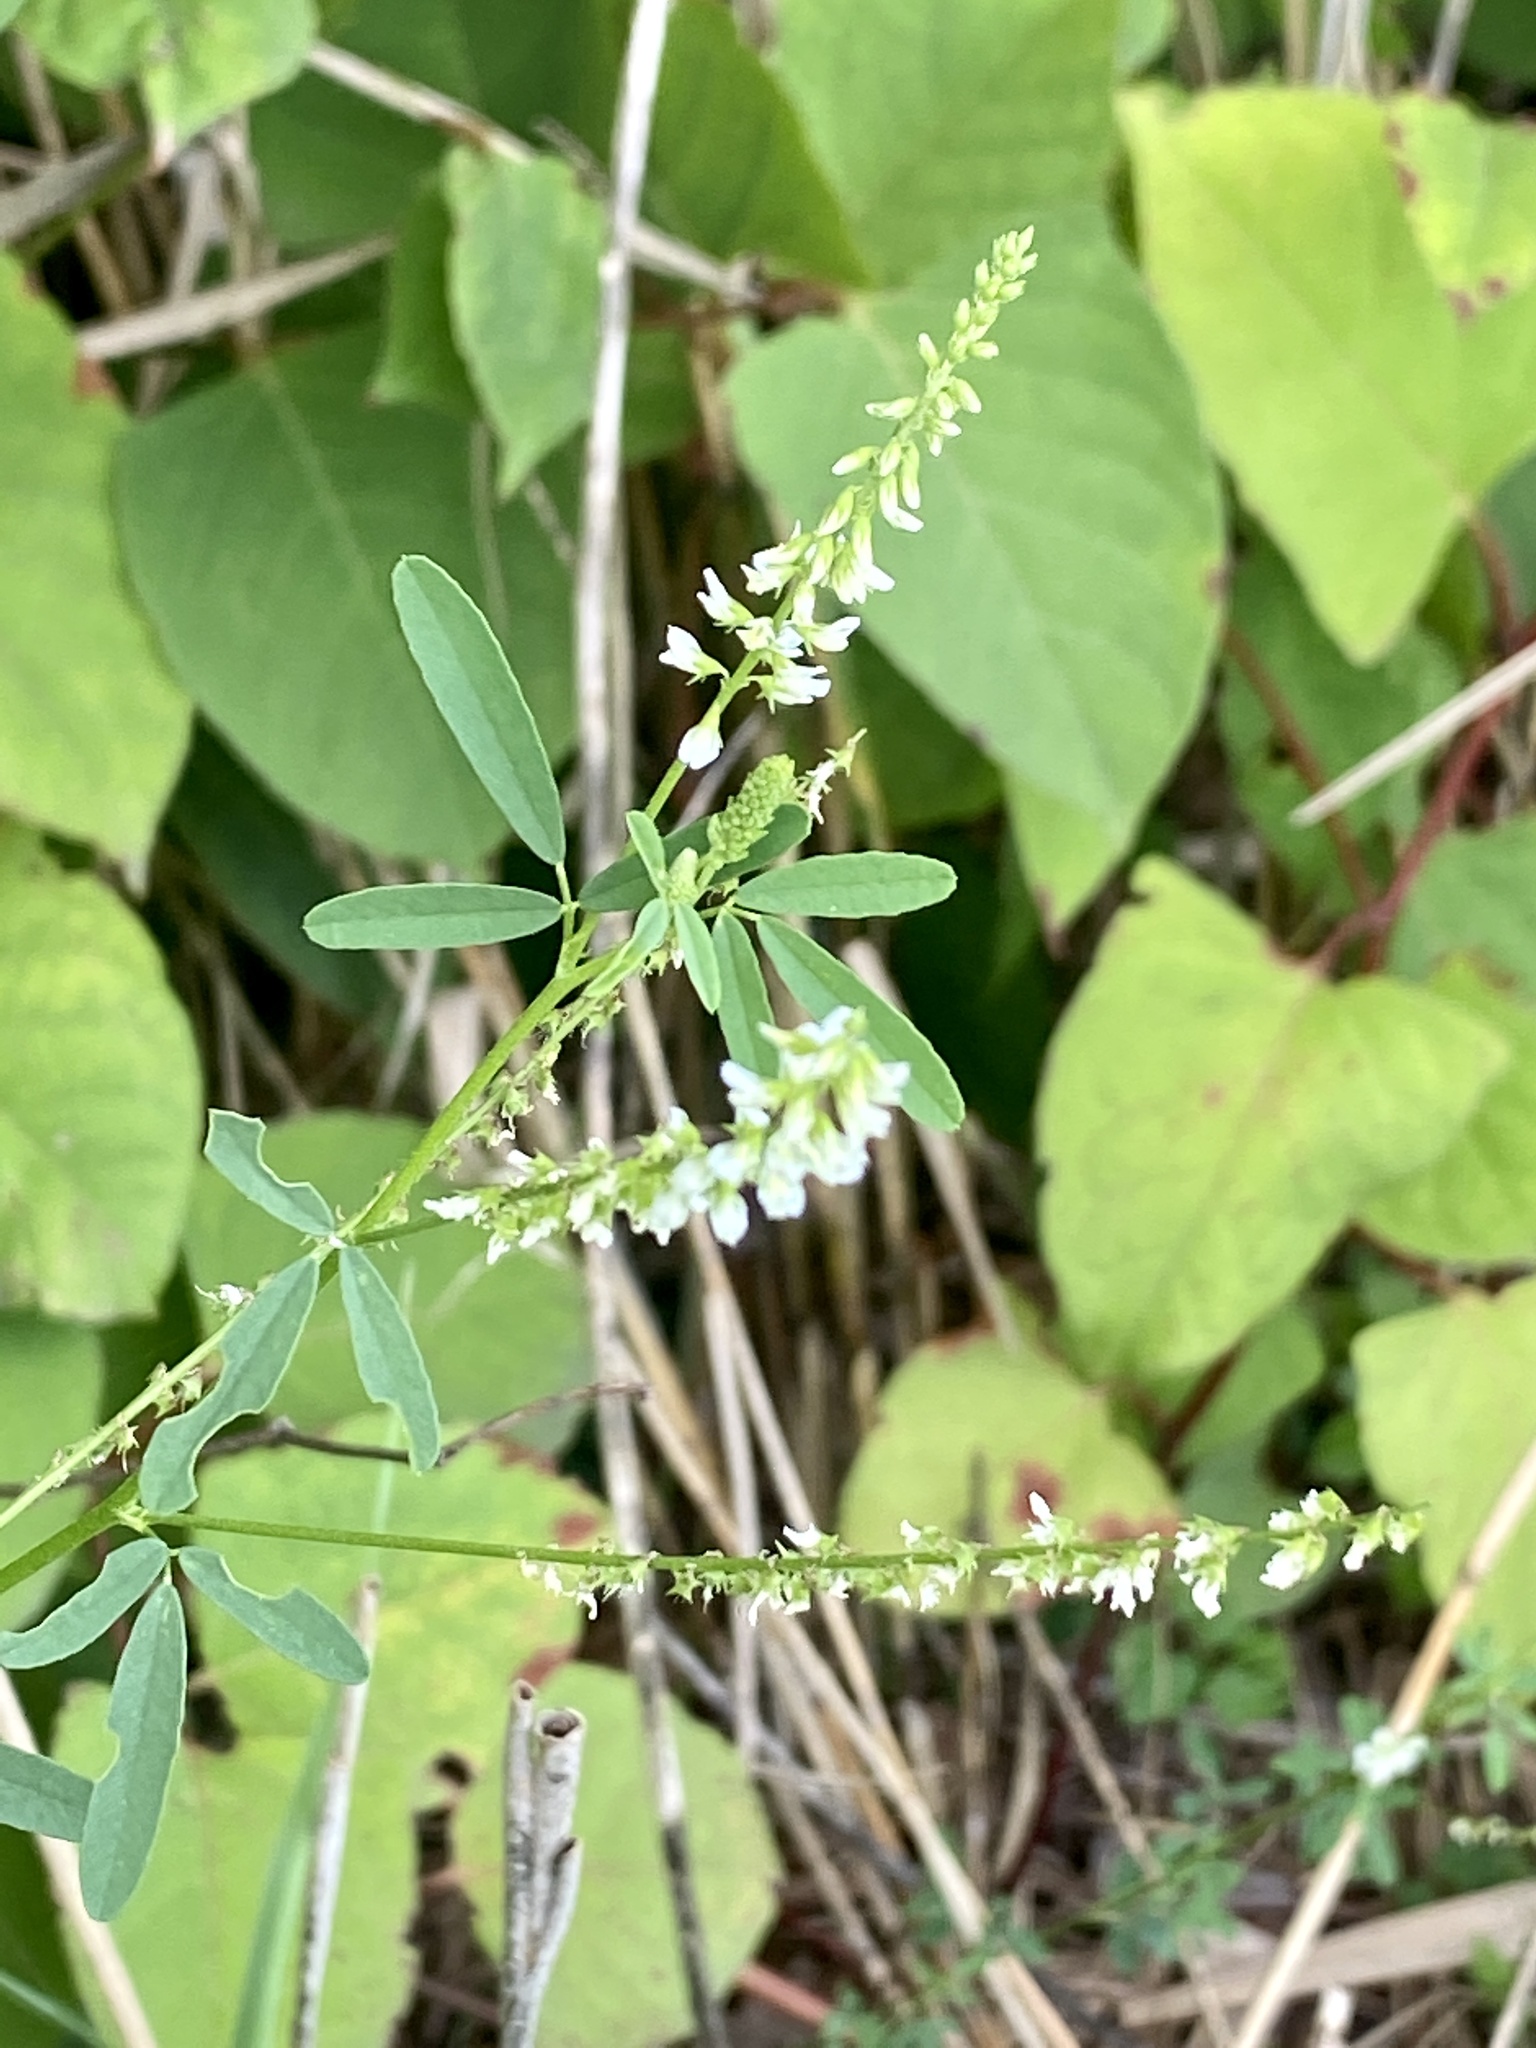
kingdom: Plantae
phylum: Tracheophyta
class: Magnoliopsida
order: Fabales
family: Fabaceae
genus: Melilotus
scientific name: Melilotus albus
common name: White melilot
